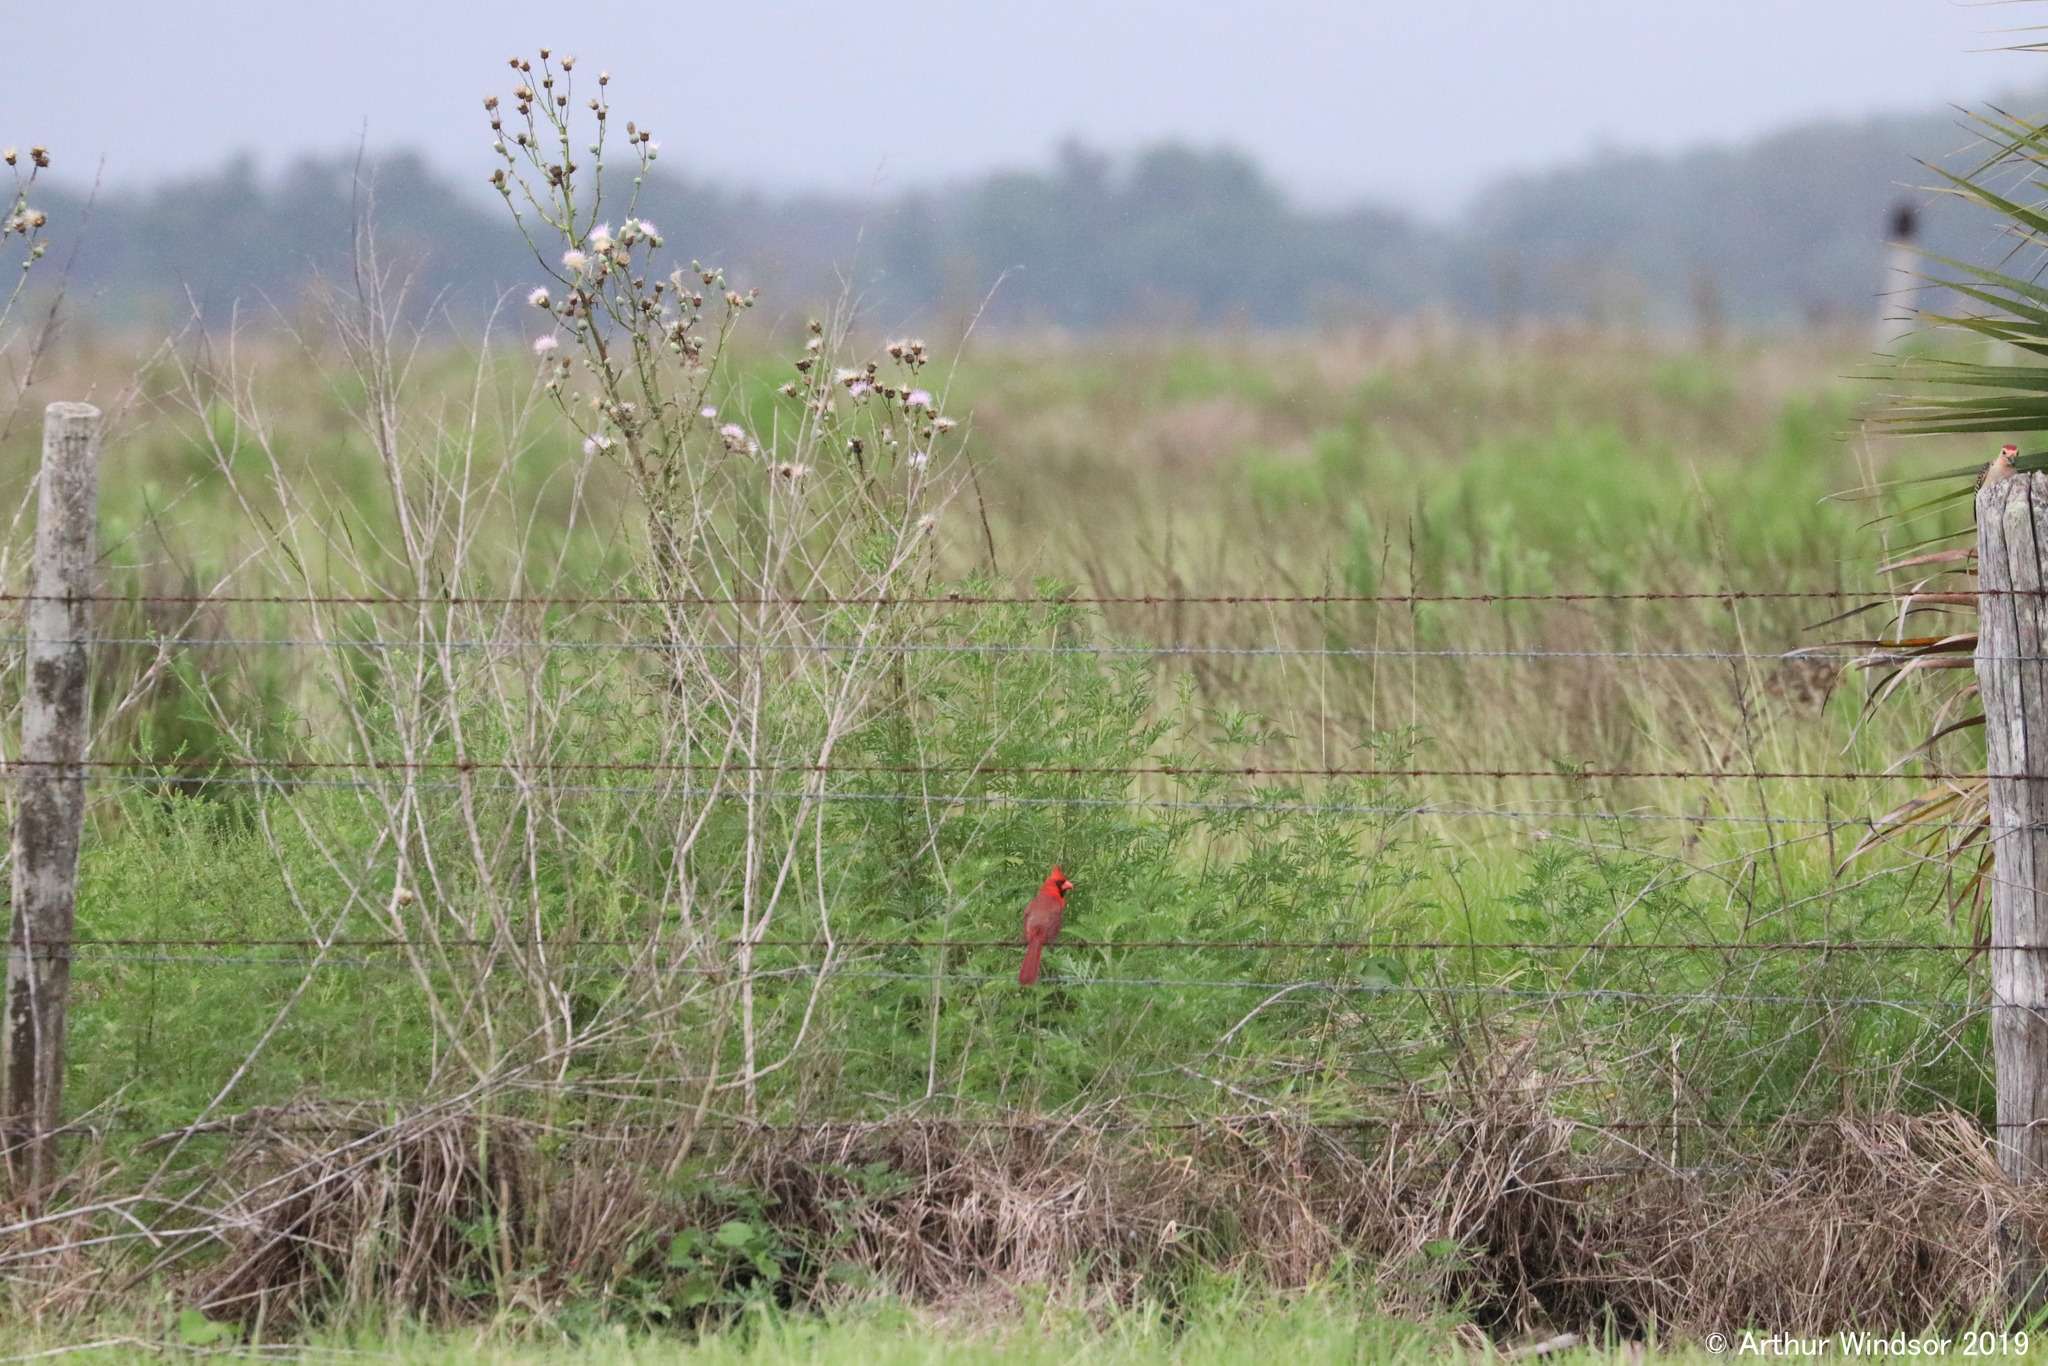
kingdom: Animalia
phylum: Chordata
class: Aves
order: Passeriformes
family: Cardinalidae
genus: Cardinalis
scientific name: Cardinalis cardinalis
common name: Northern cardinal
